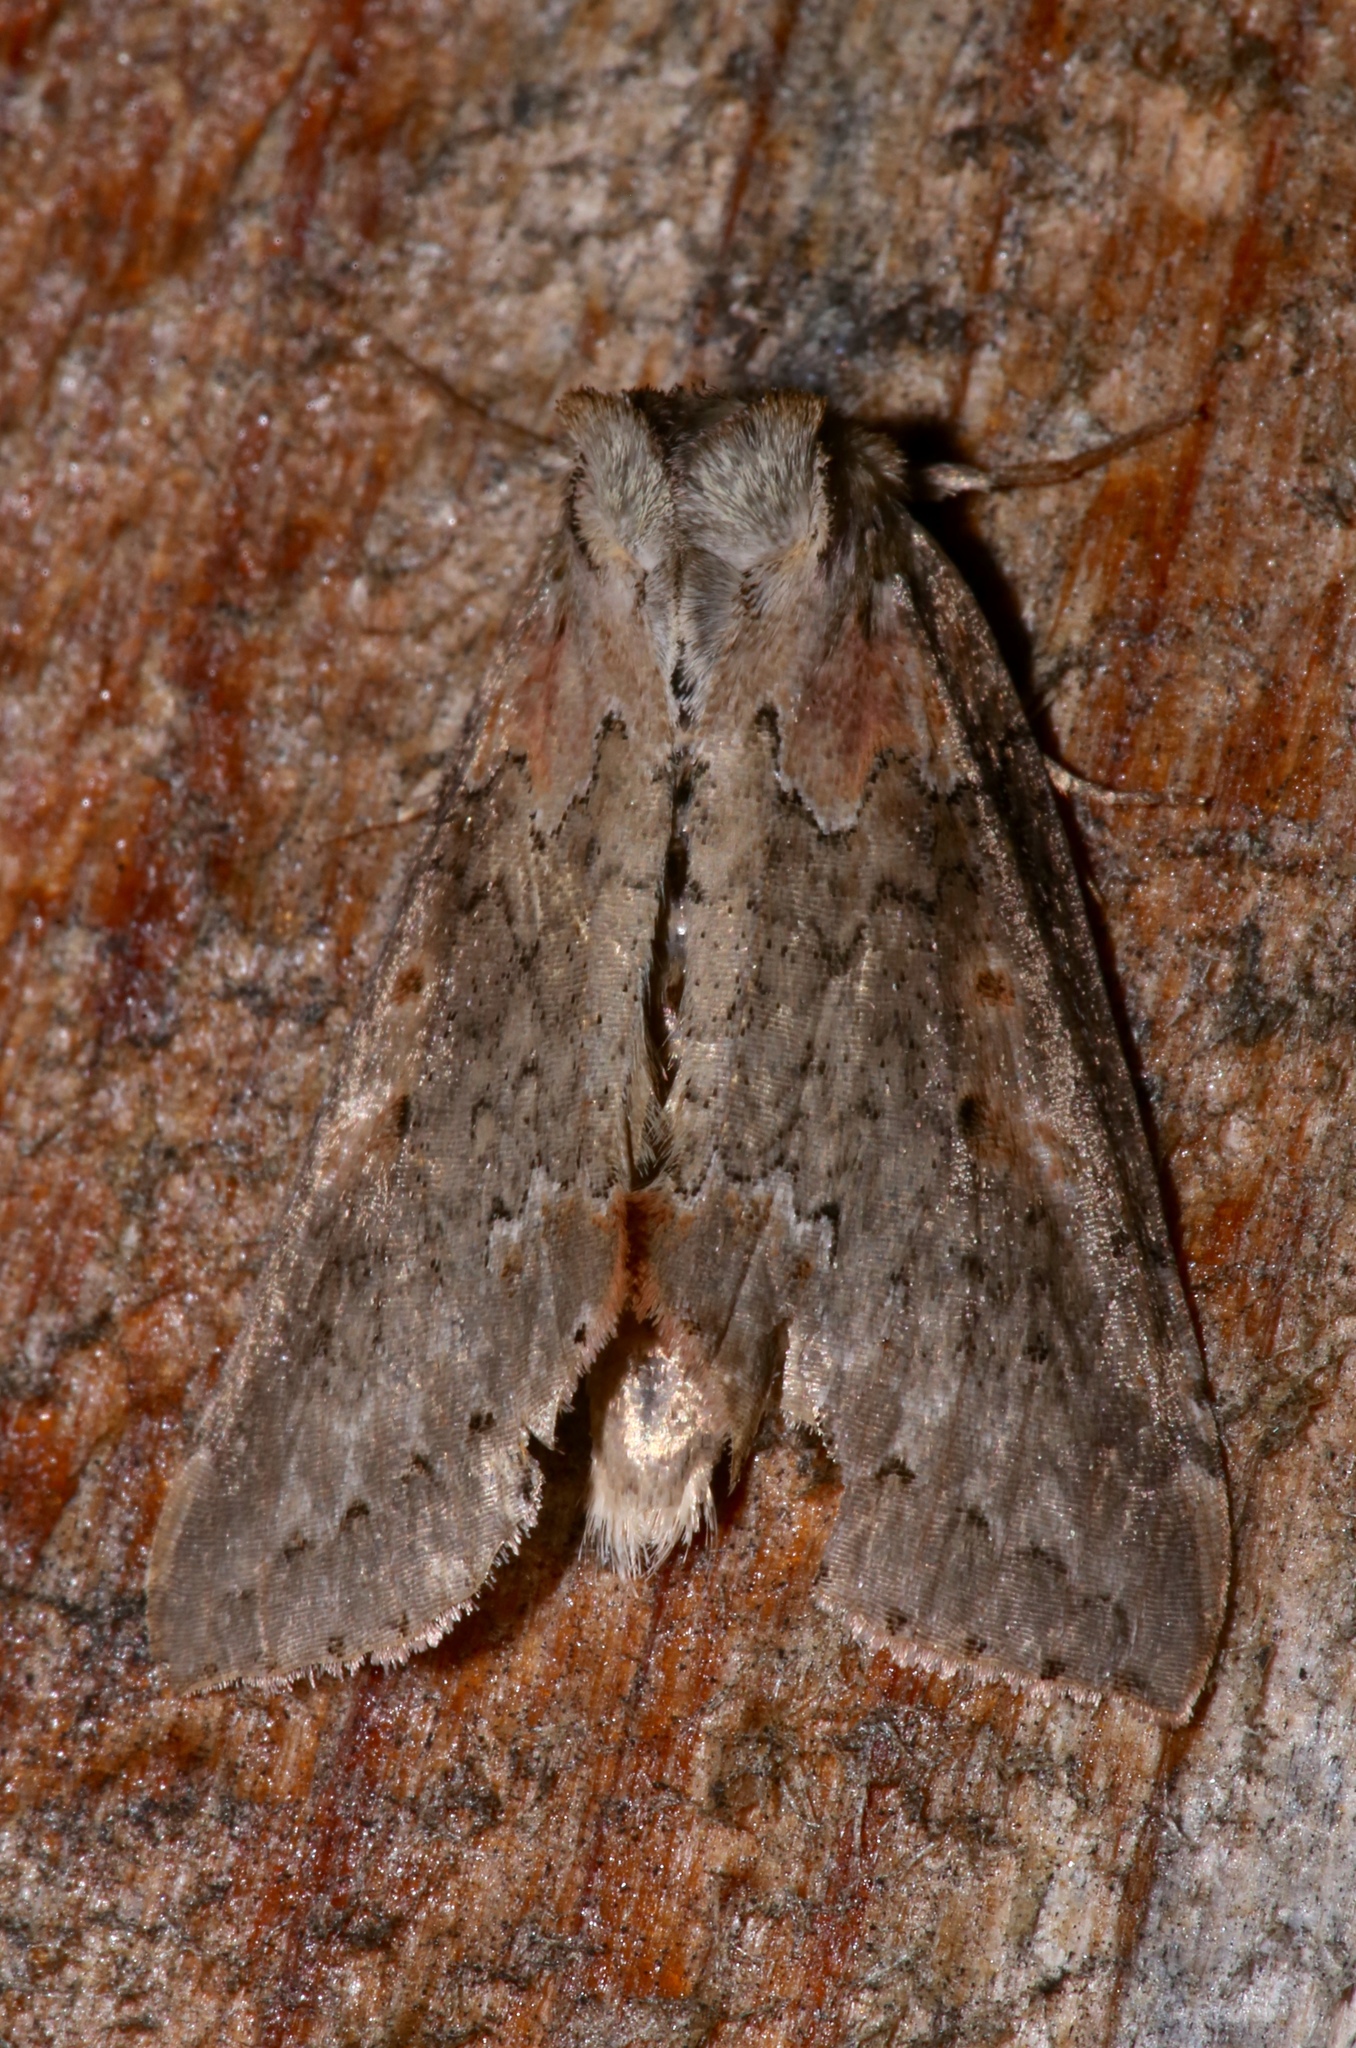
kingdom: Animalia
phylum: Arthropoda
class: Insecta
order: Lepidoptera
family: Drepanidae
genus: Pseudothyatira
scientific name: Pseudothyatira cymatophoroides
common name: Tufted thyatirid moth
